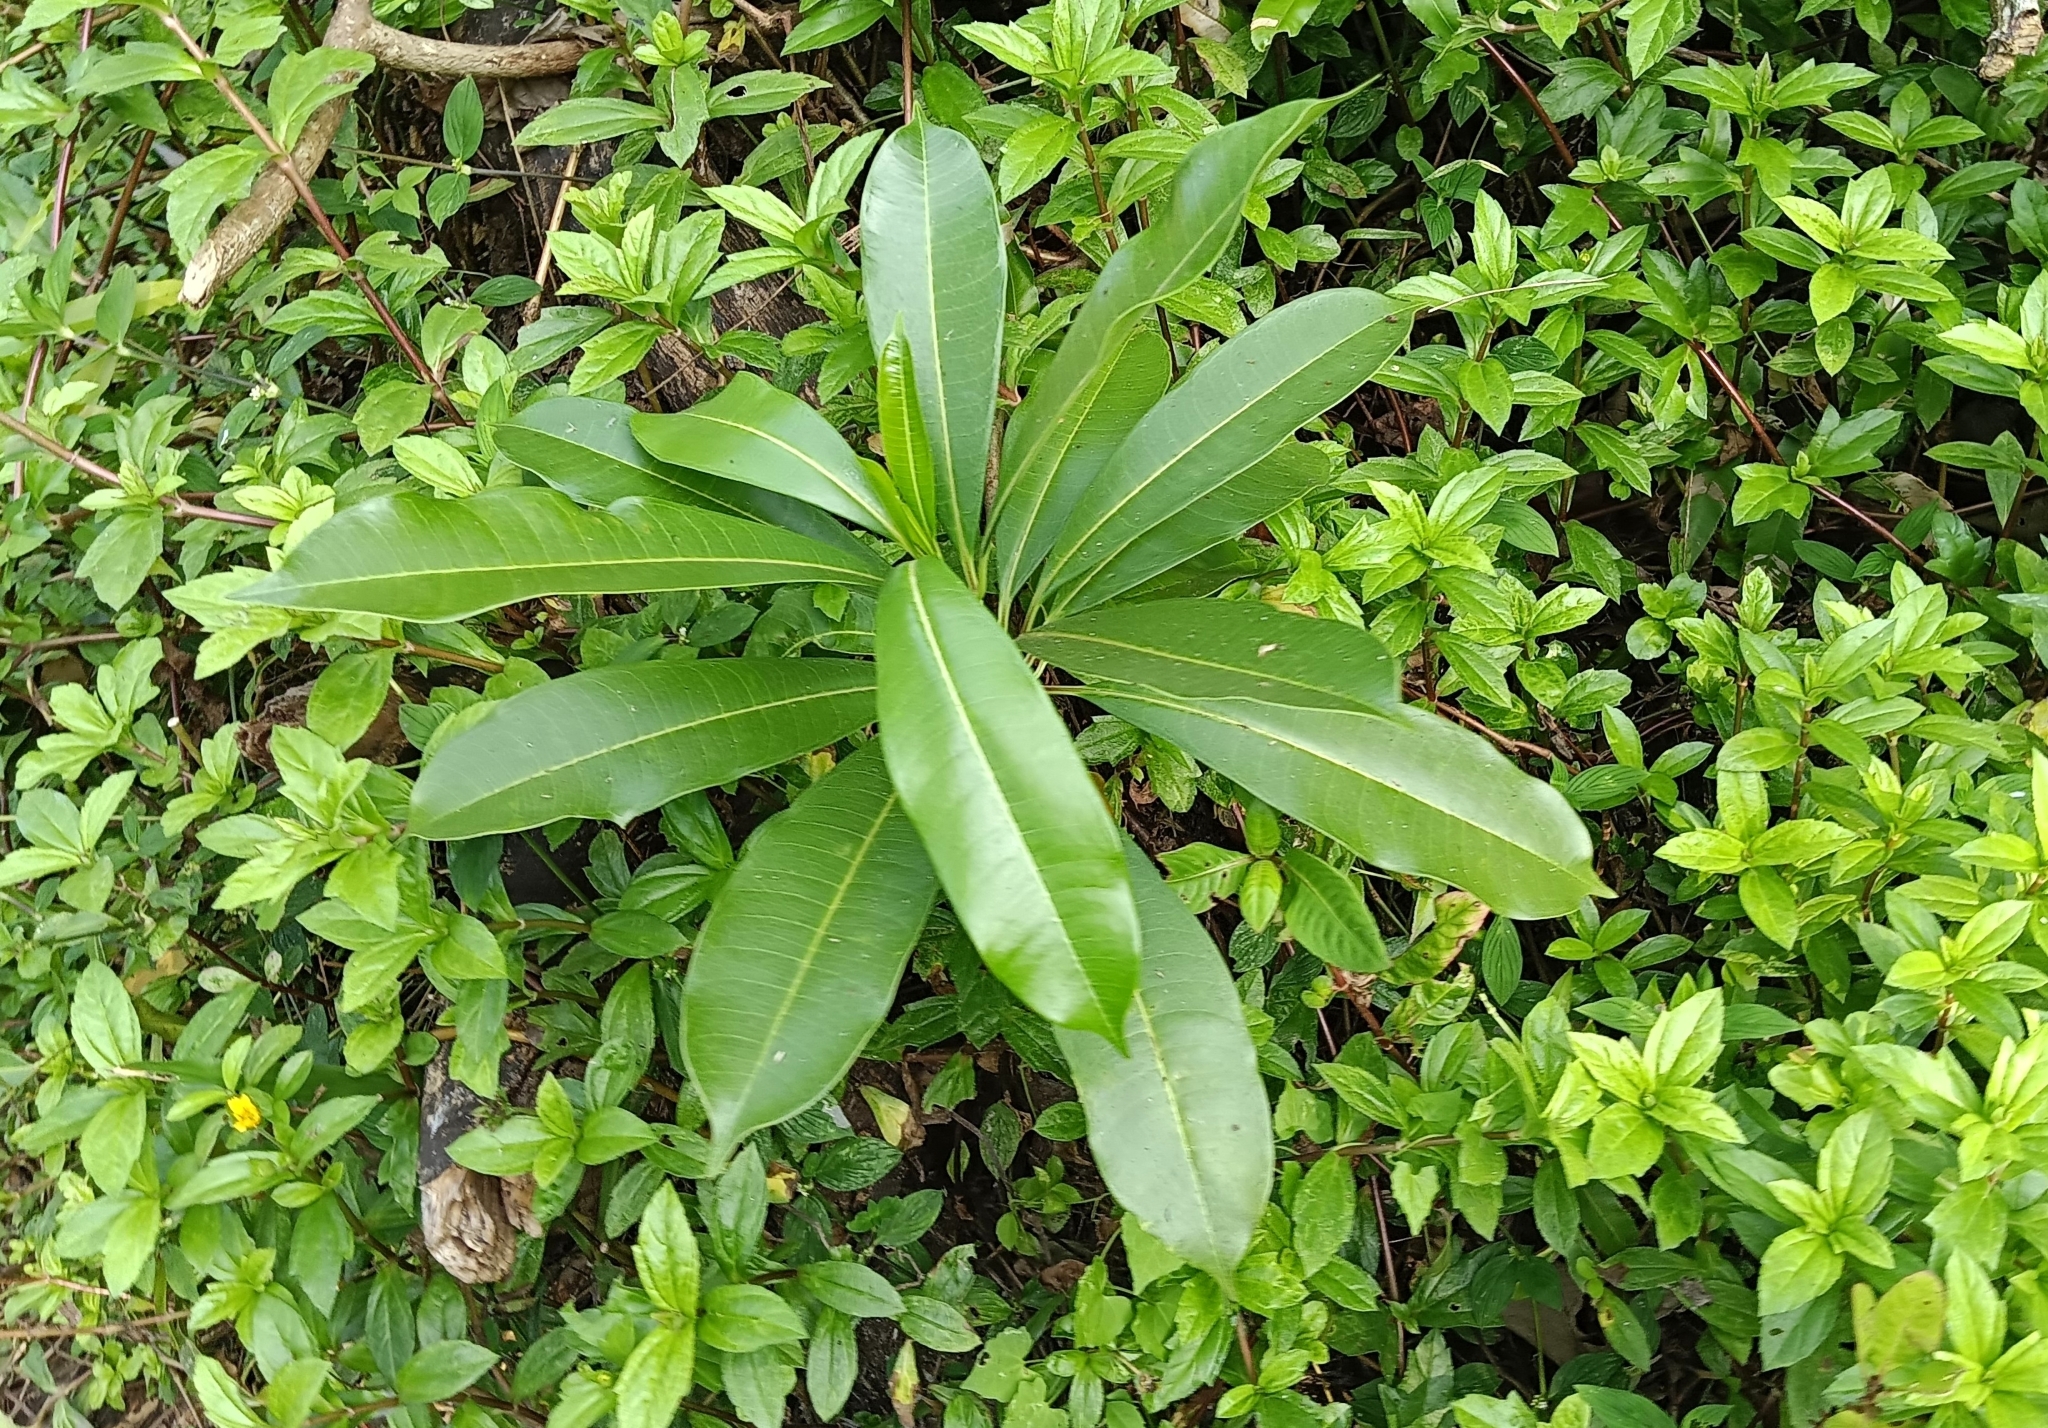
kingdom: Plantae
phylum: Tracheophyta
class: Magnoliopsida
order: Gentianales
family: Apocynaceae
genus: Cerbera
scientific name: Cerbera odollam
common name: Pong-pong
